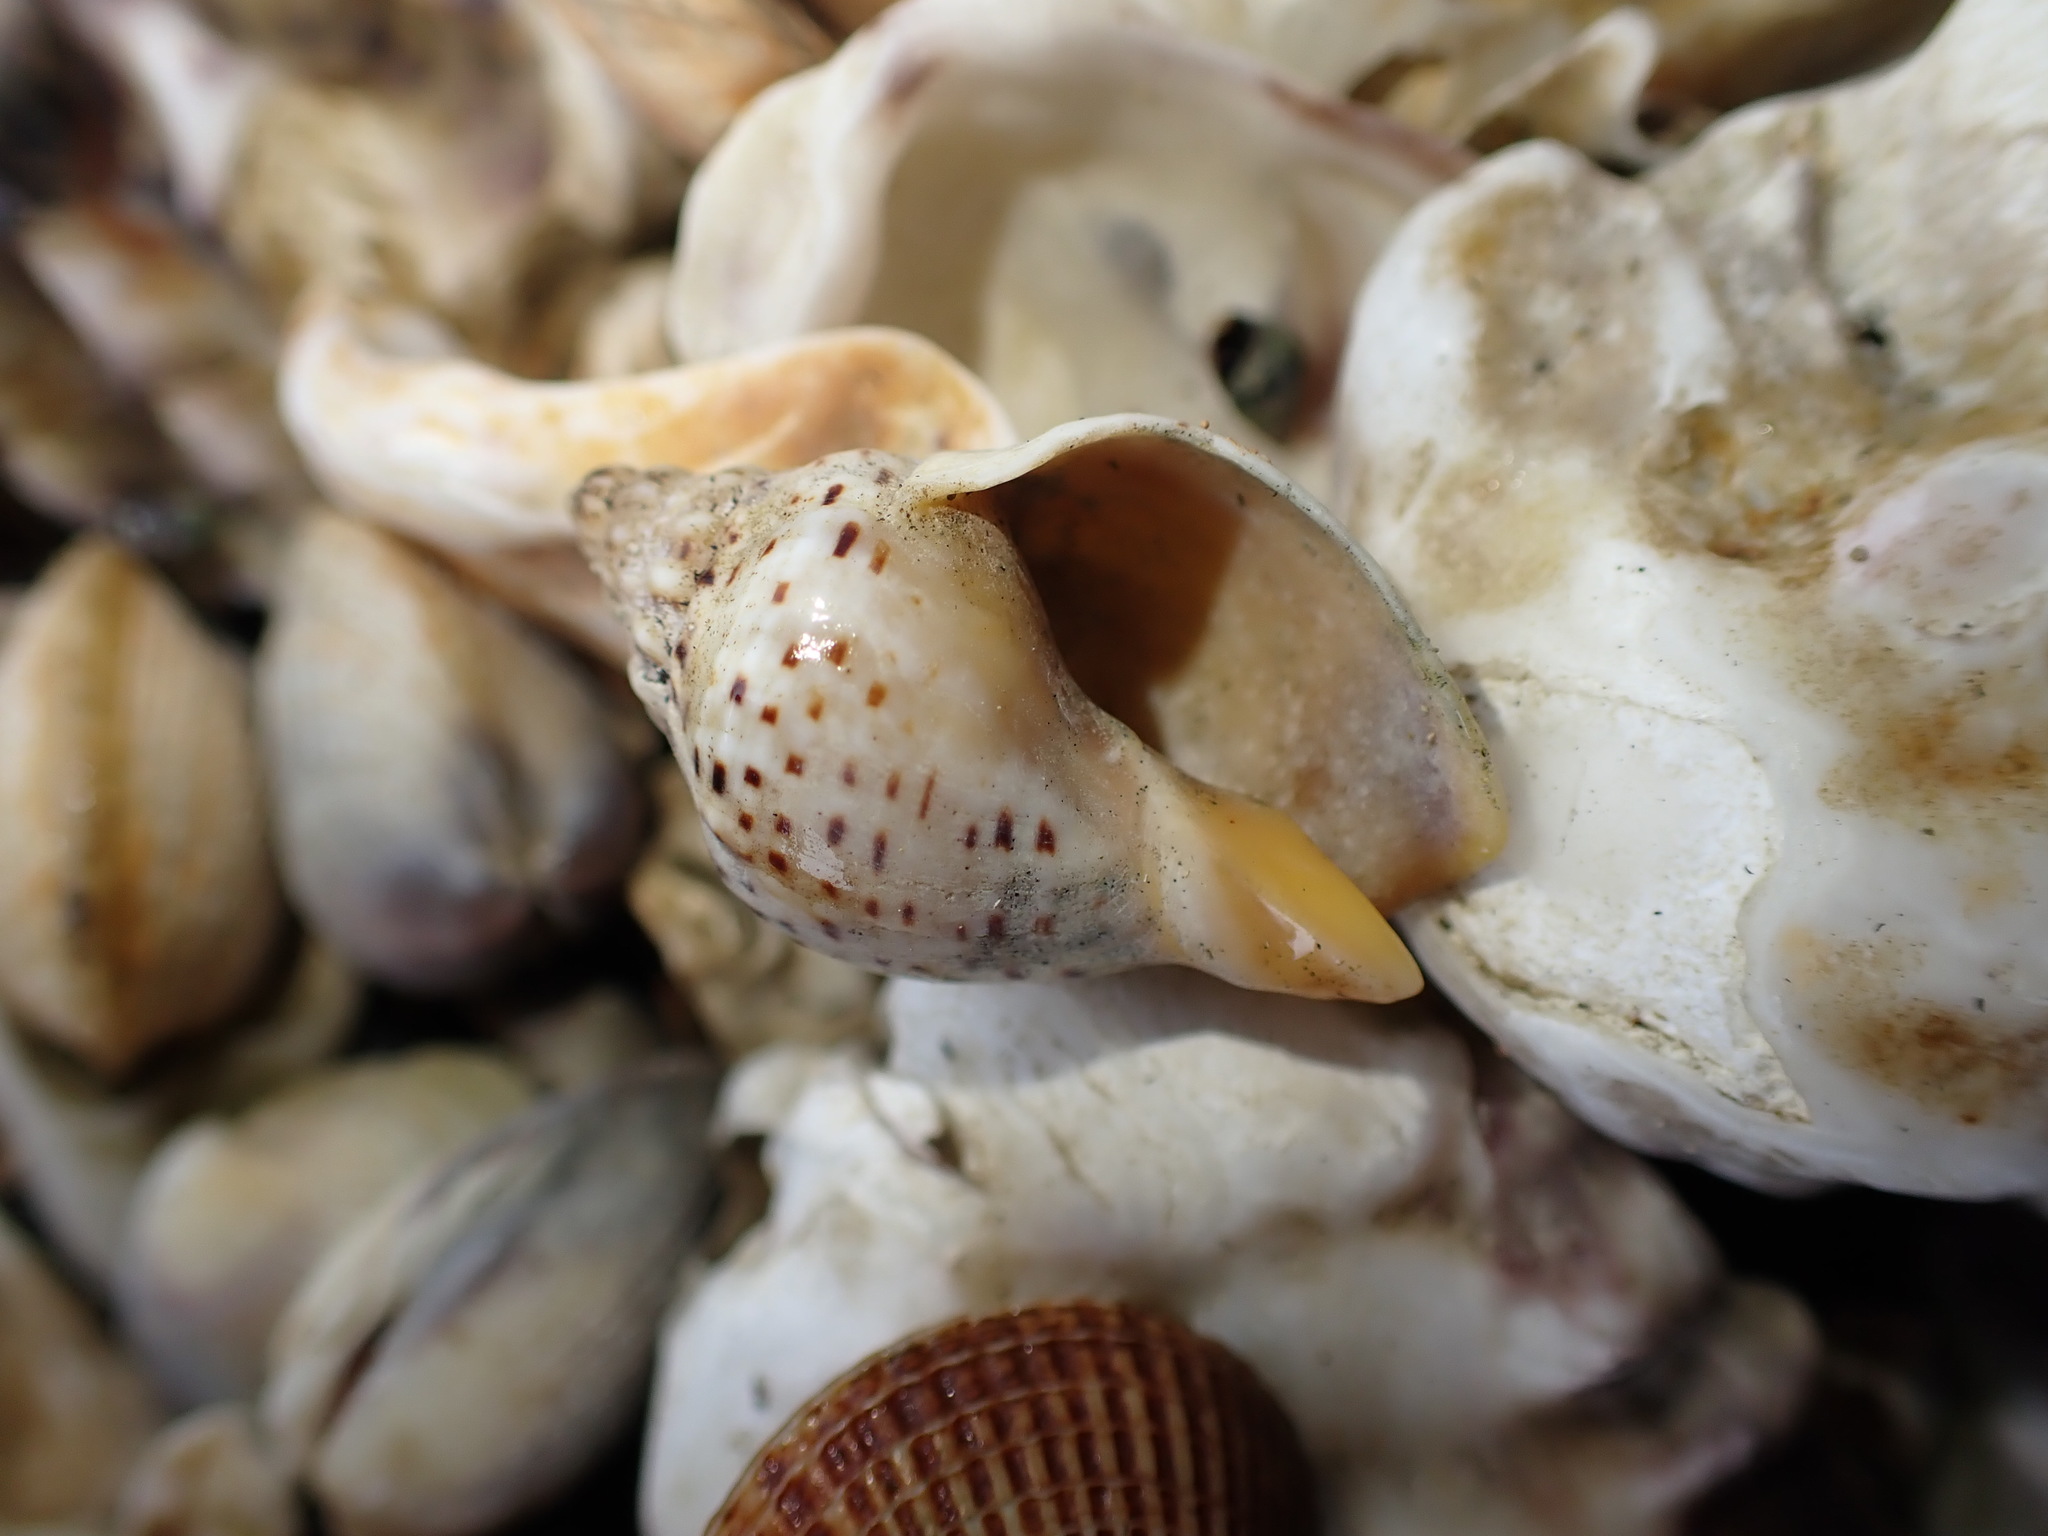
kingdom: Animalia
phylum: Mollusca
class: Gastropoda
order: Neogastropoda
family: Cominellidae
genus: Cominella
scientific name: Cominella adspersa
